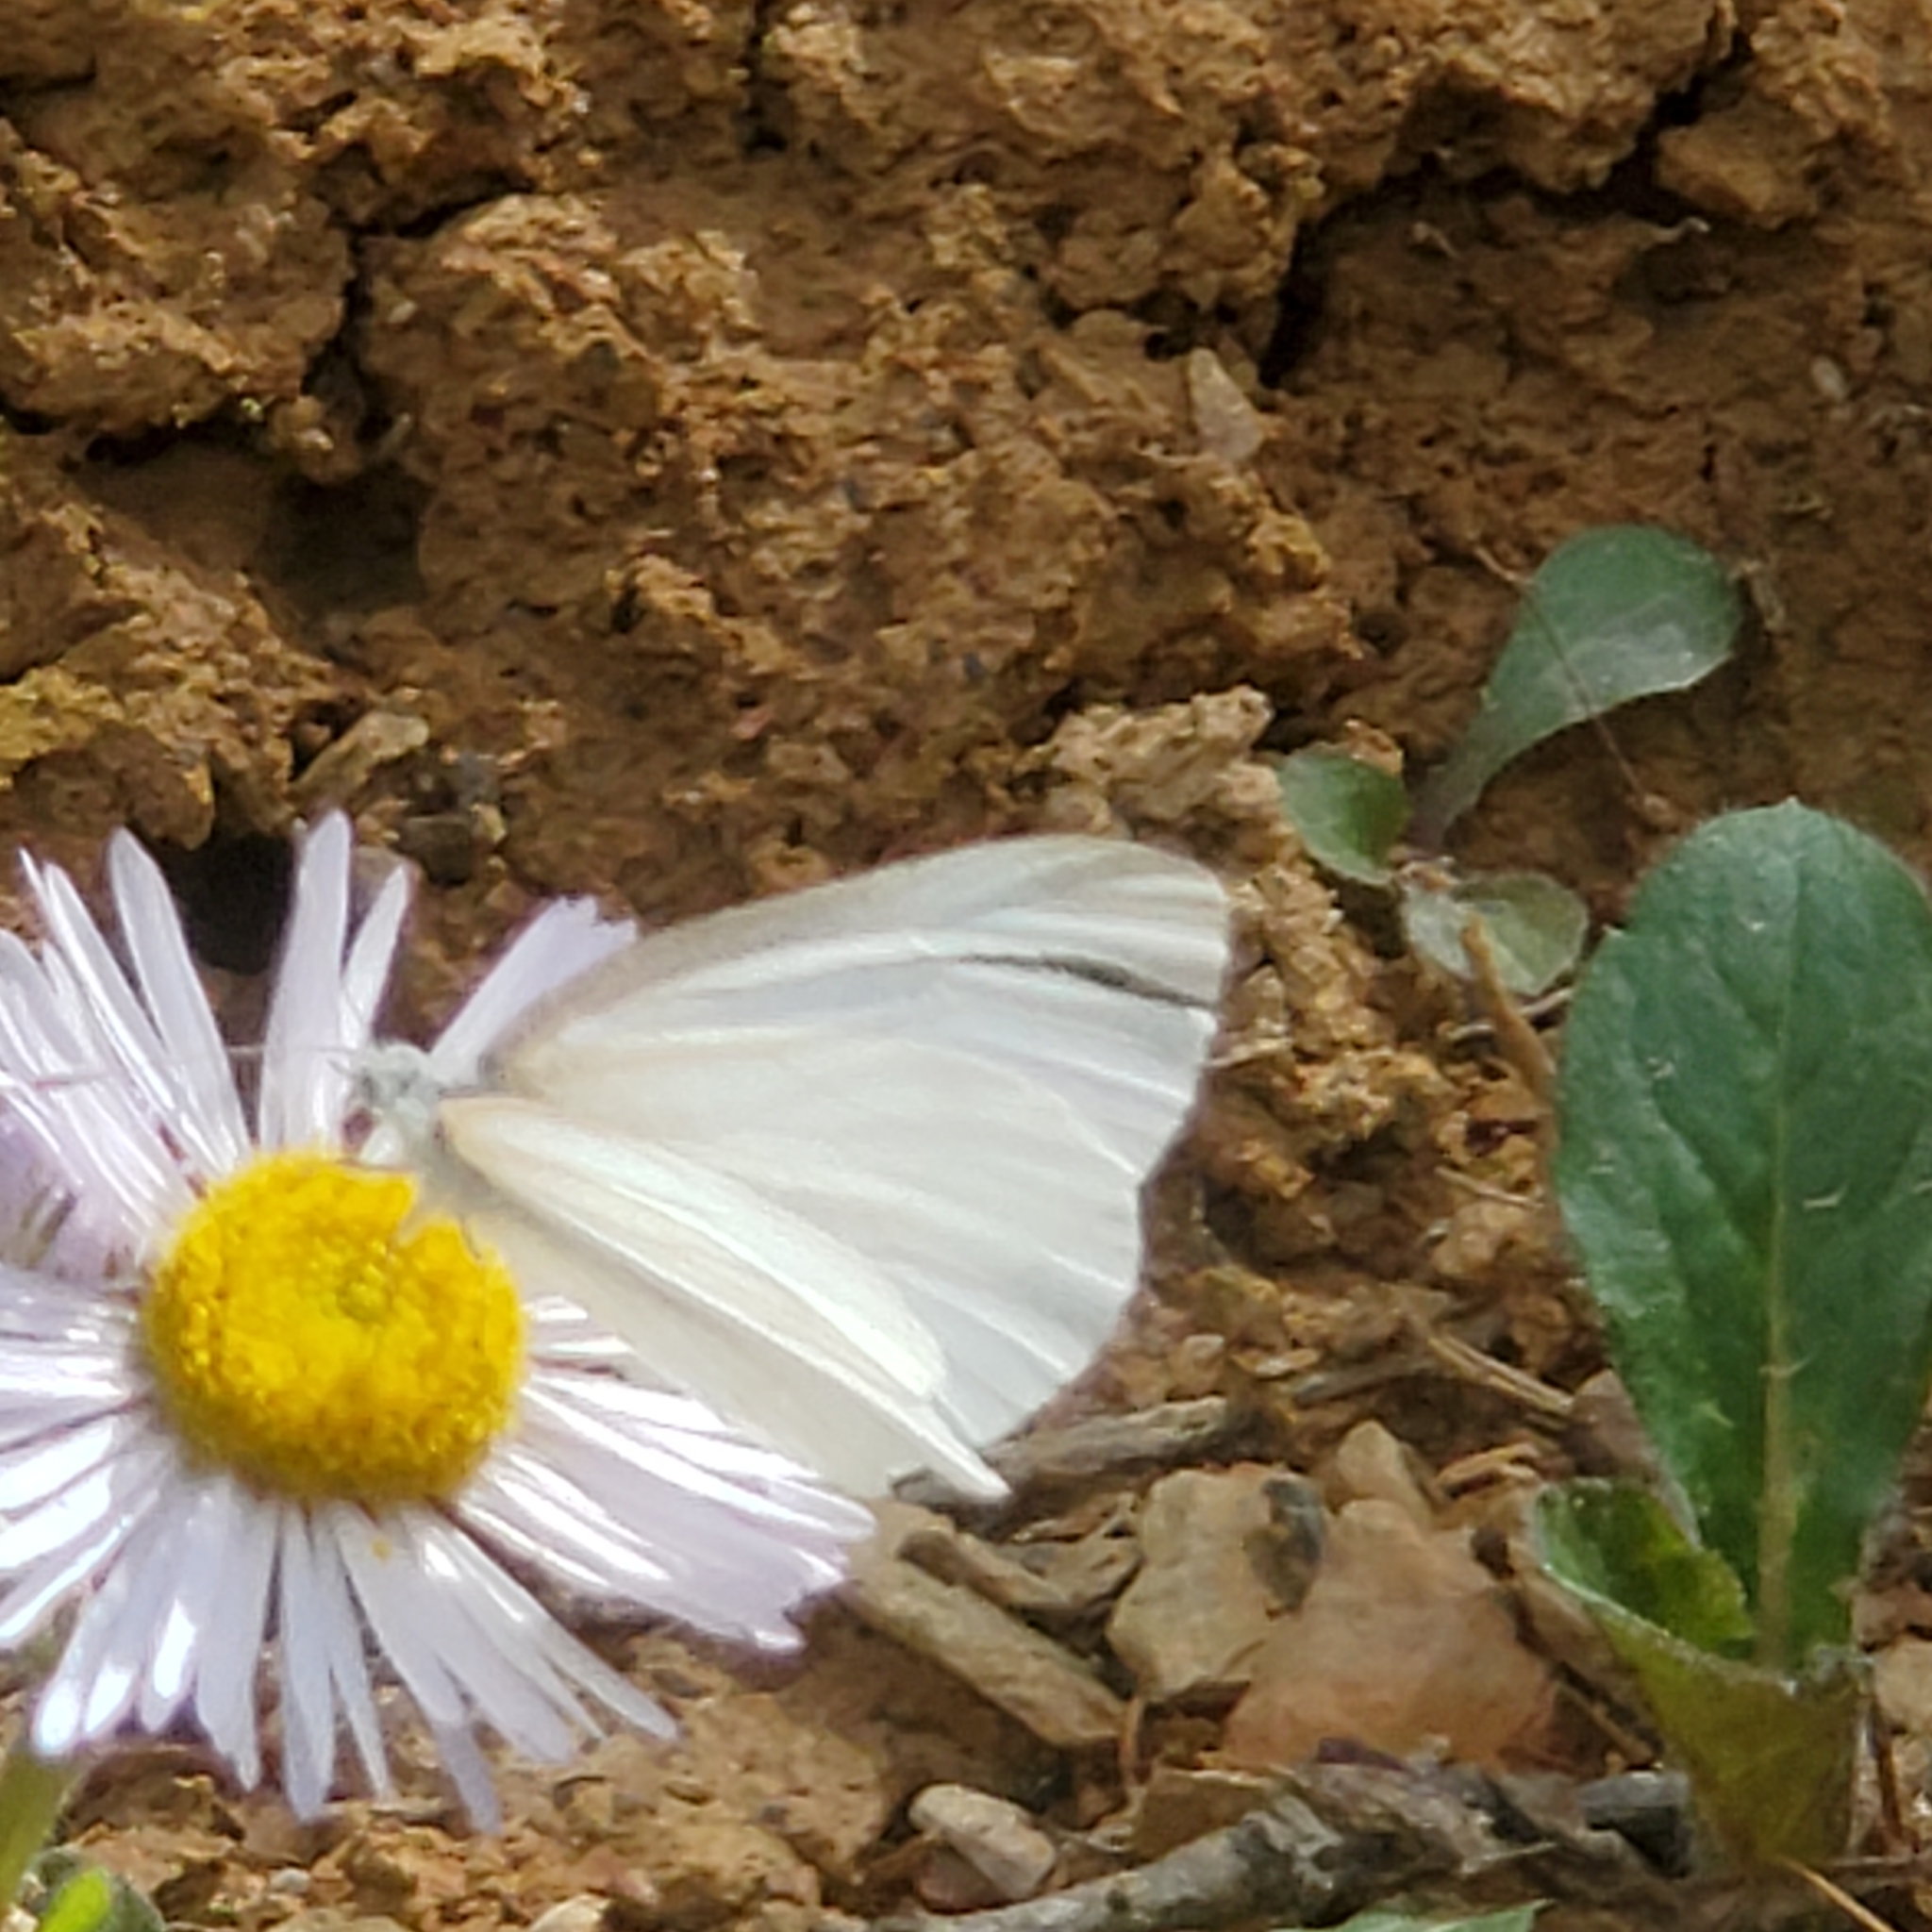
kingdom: Animalia
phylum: Arthropoda
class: Insecta
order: Lepidoptera
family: Pieridae
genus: Pieris
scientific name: Pieris virginiensis
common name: West virginia white
